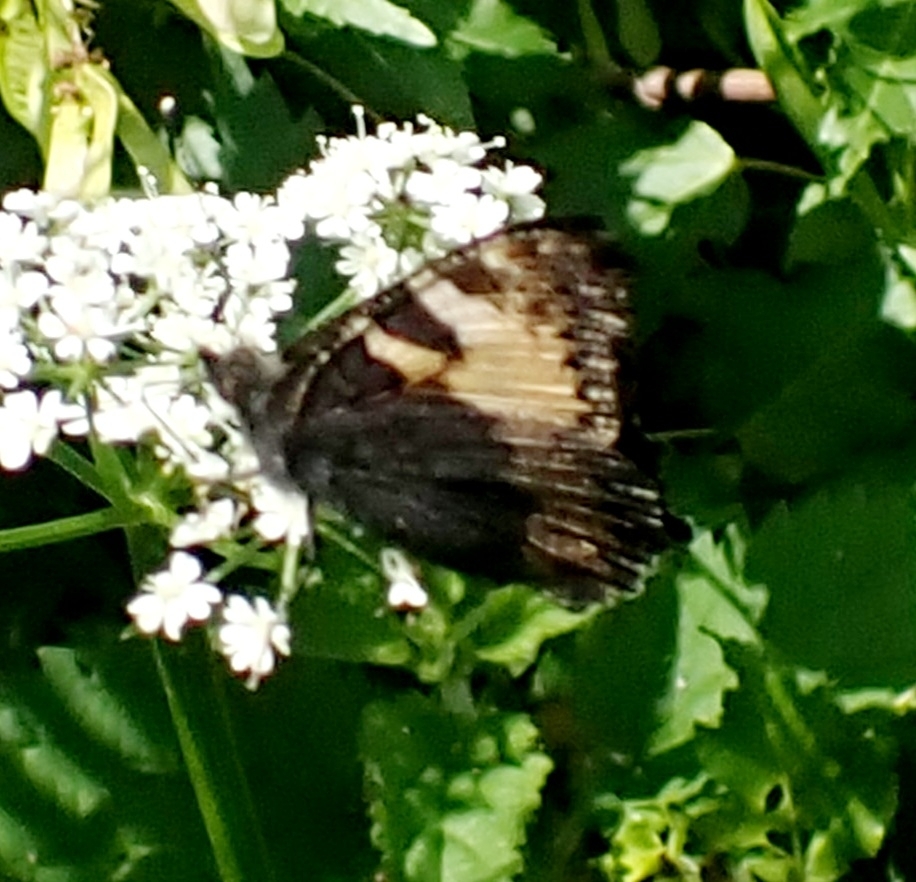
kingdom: Animalia
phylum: Arthropoda
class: Insecta
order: Lepidoptera
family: Nymphalidae
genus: Aglais
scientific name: Aglais urticae
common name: Small tortoiseshell
